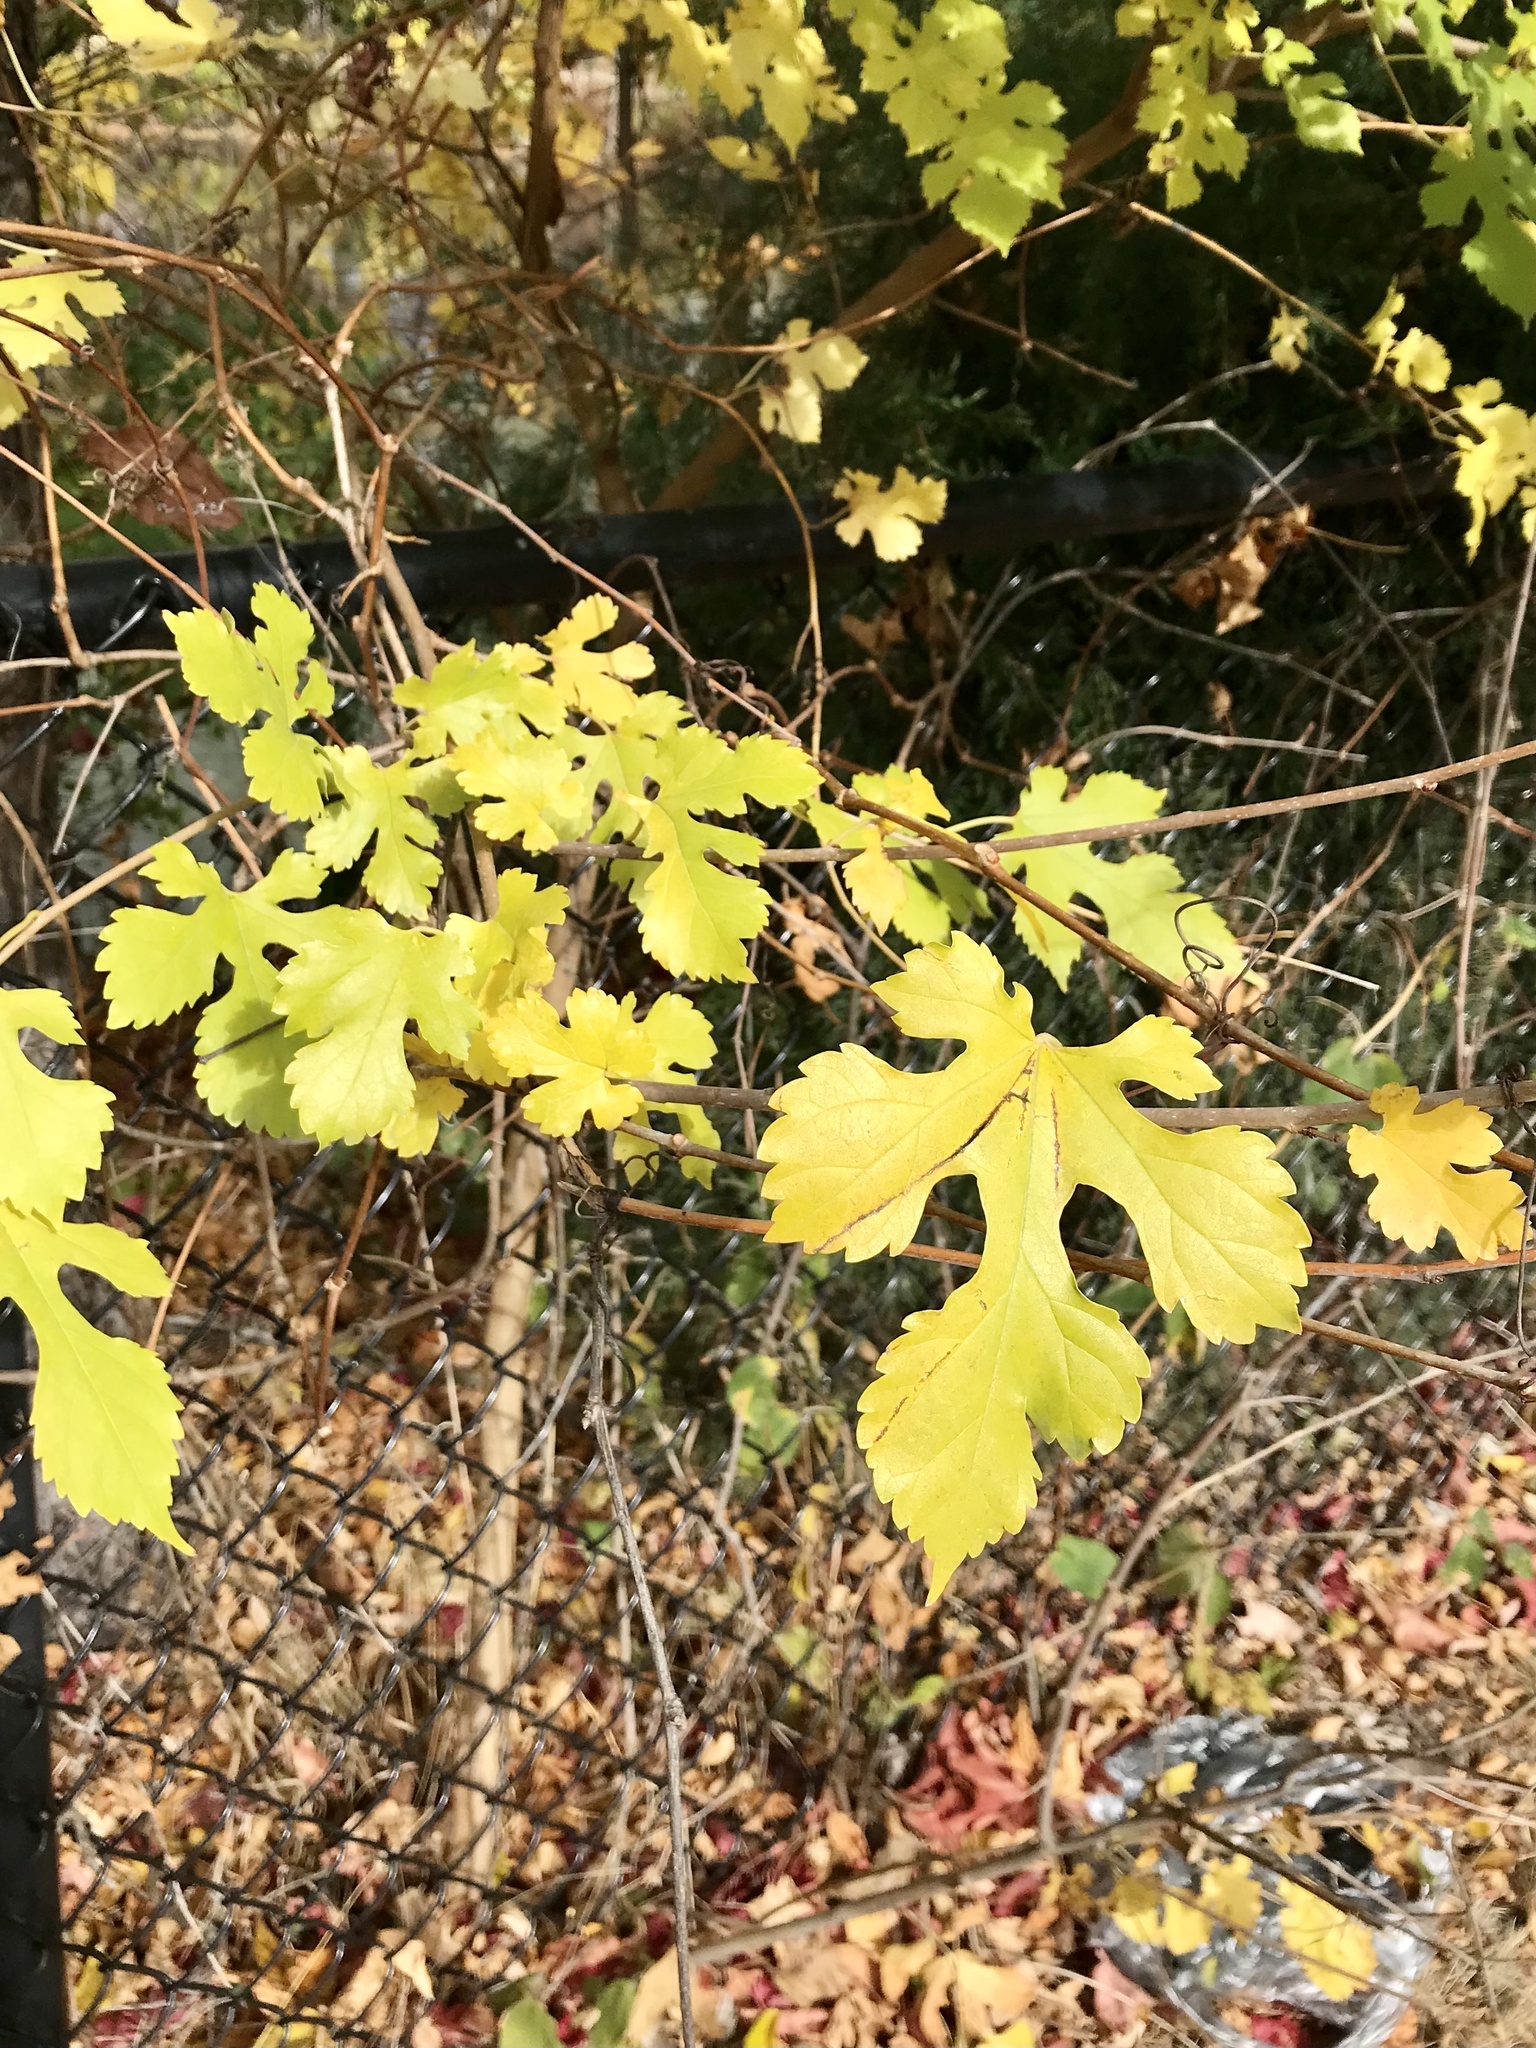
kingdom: Plantae
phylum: Tracheophyta
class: Magnoliopsida
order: Rosales
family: Moraceae
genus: Morus
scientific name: Morus alba
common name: White mulberry
